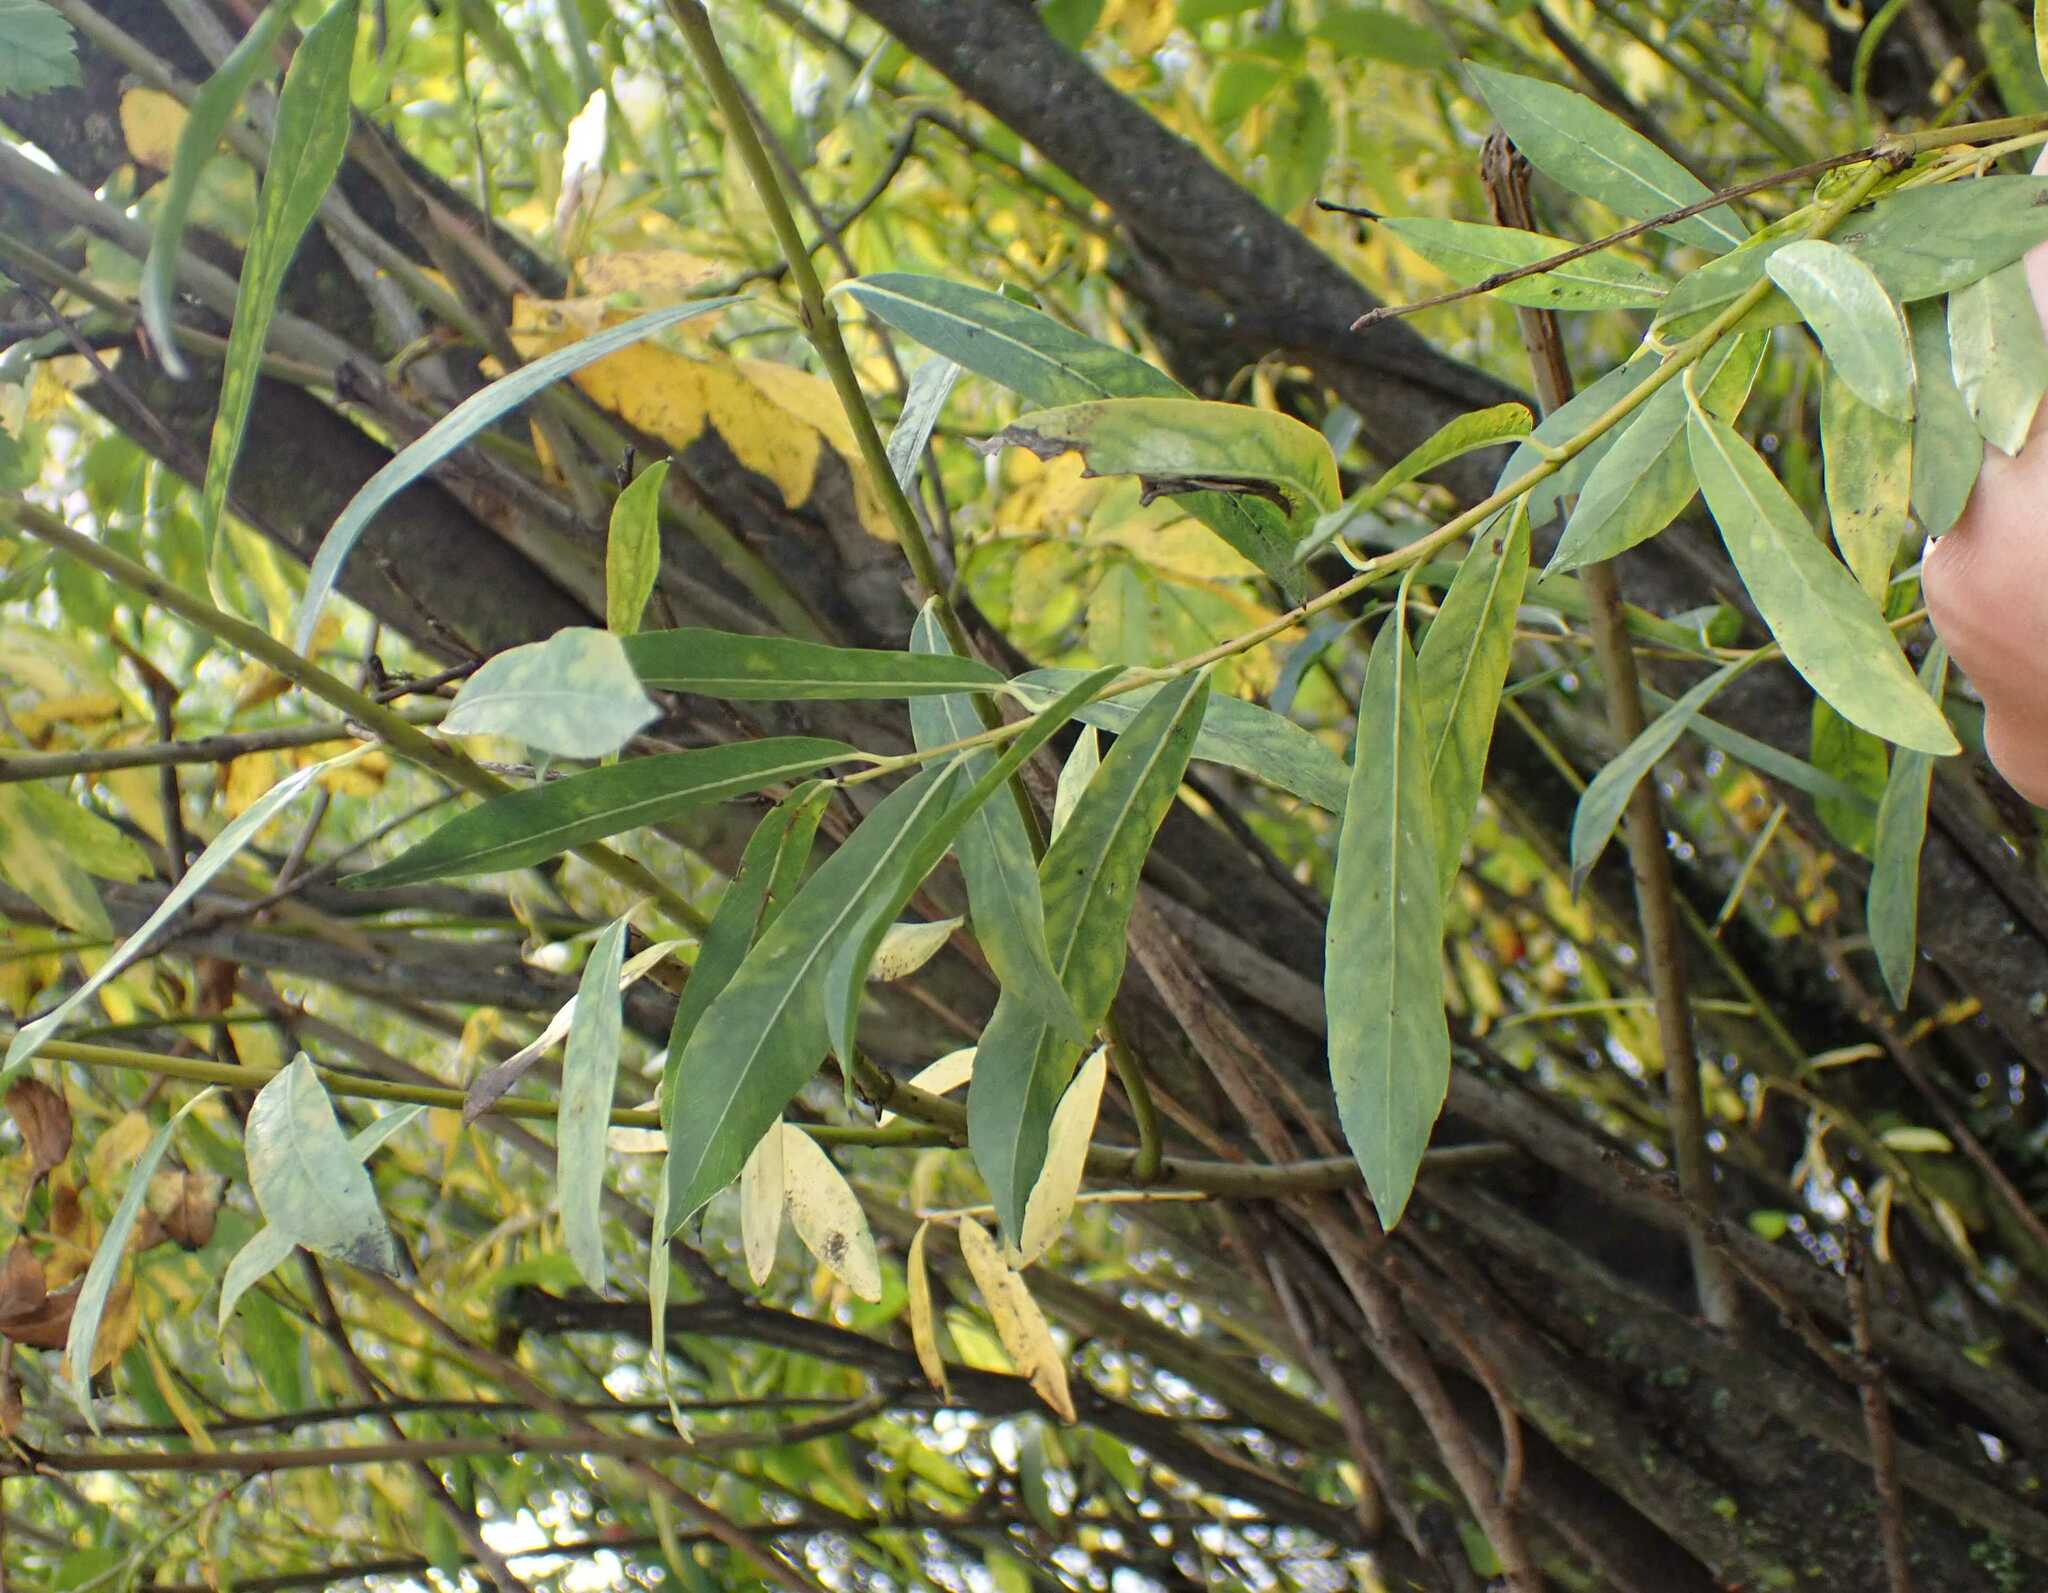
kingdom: Plantae
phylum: Tracheophyta
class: Magnoliopsida
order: Malpighiales
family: Salicaceae
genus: Salix
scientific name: Salix purpurea
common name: Purple willow
